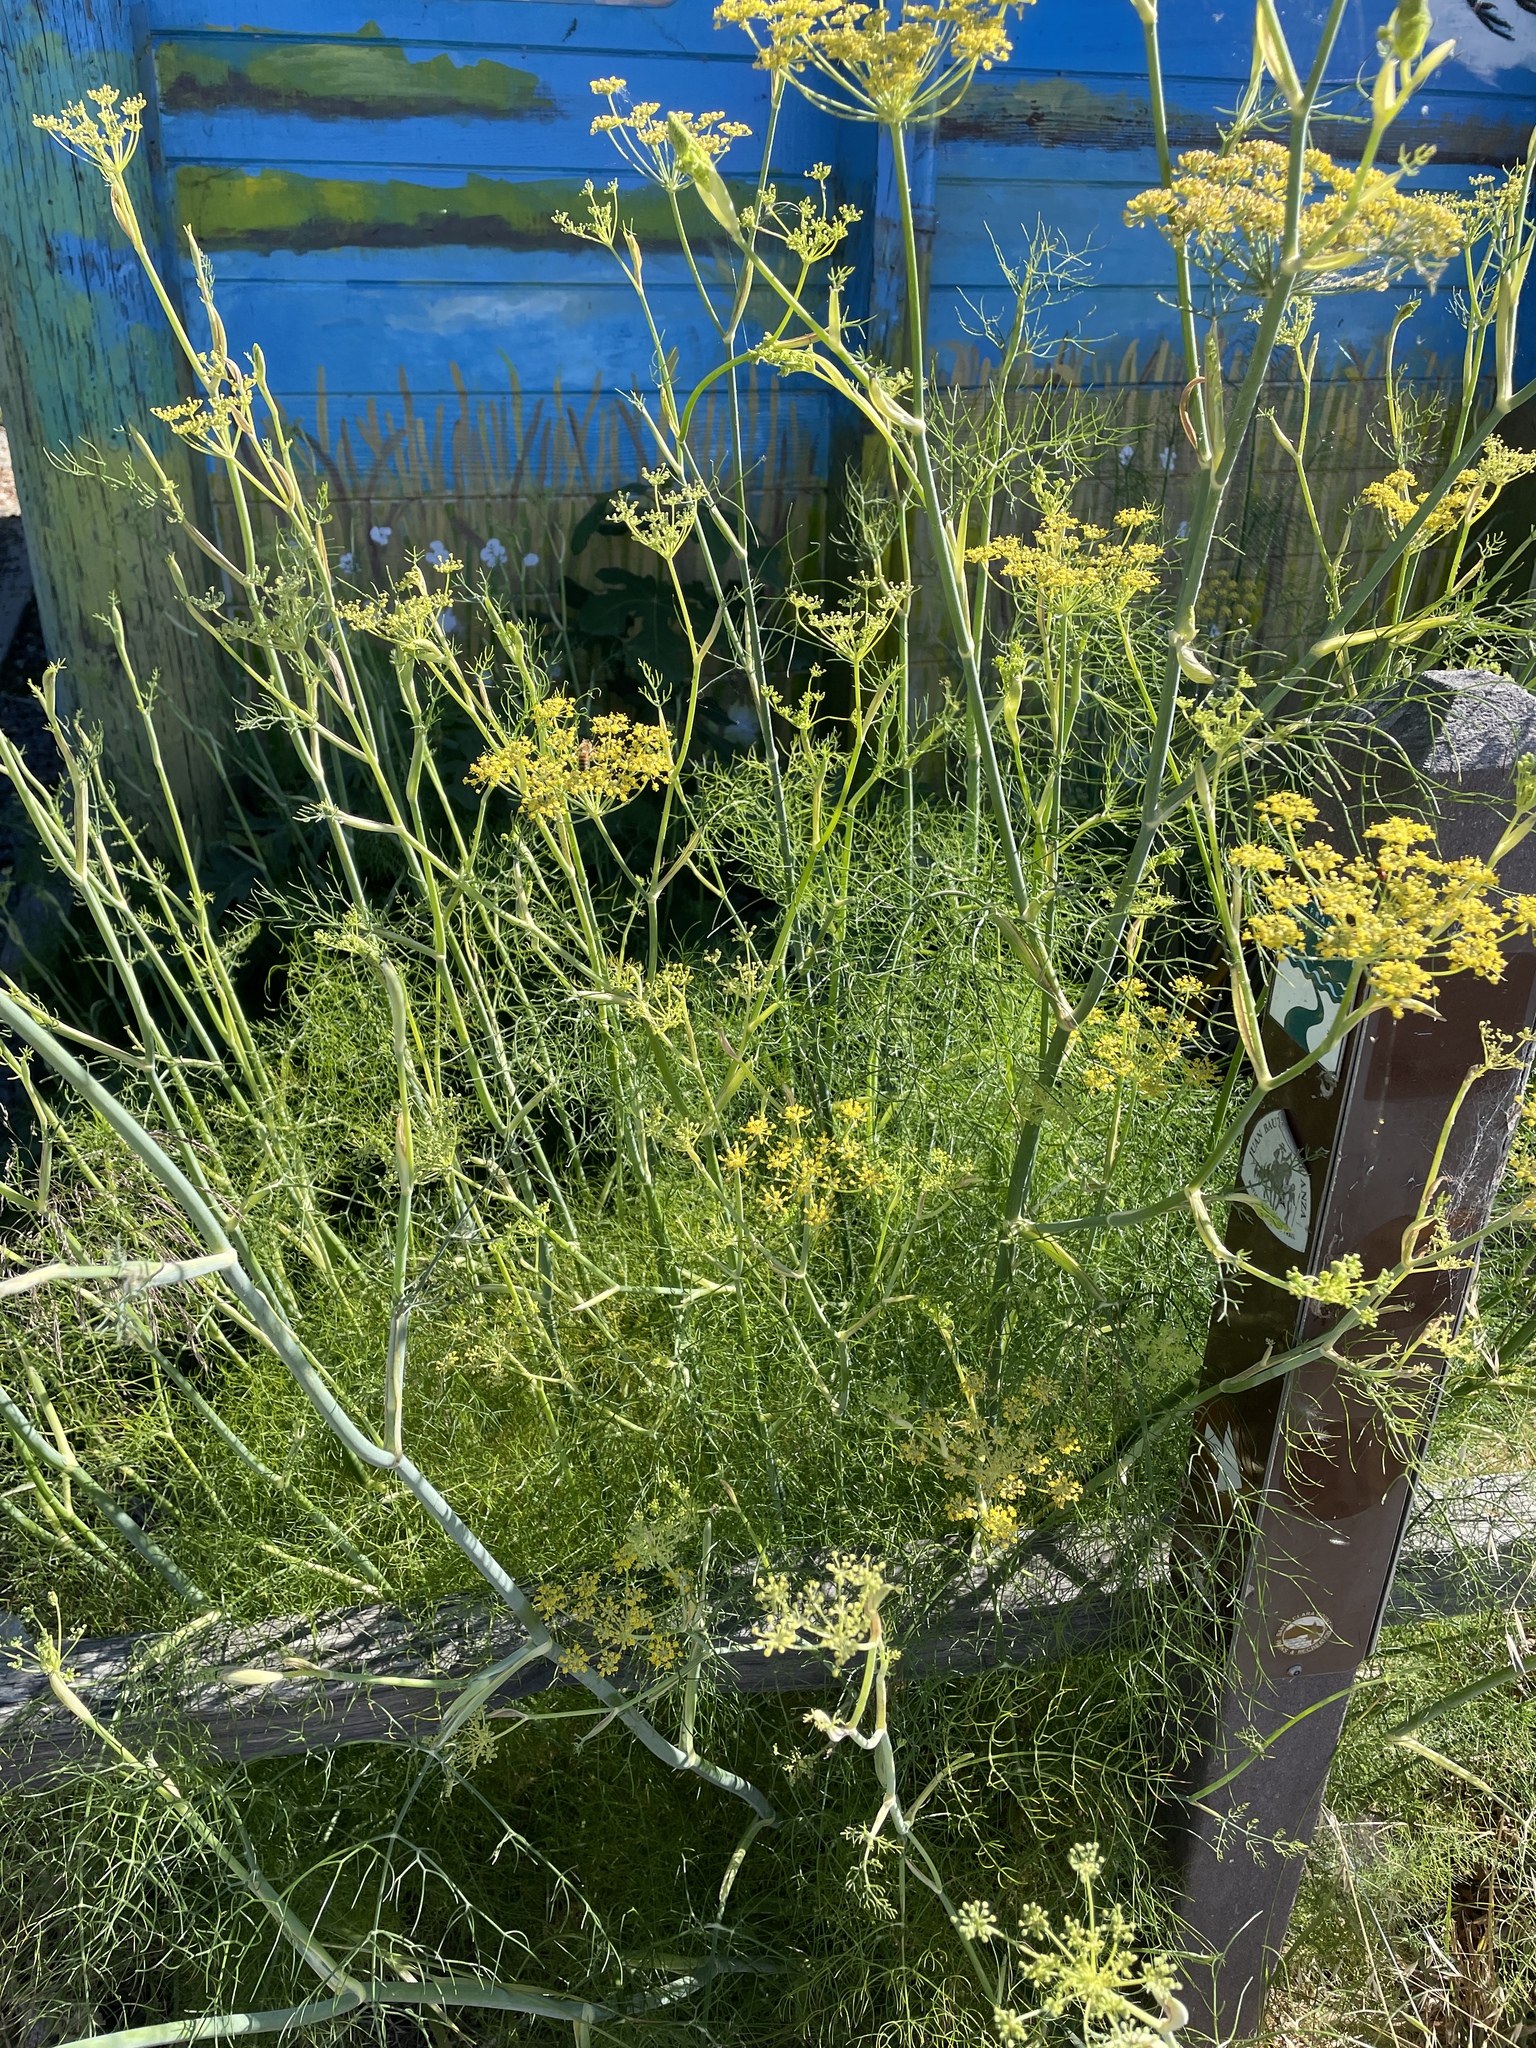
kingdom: Plantae
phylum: Tracheophyta
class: Magnoliopsida
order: Apiales
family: Apiaceae
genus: Foeniculum
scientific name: Foeniculum vulgare
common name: Fennel
